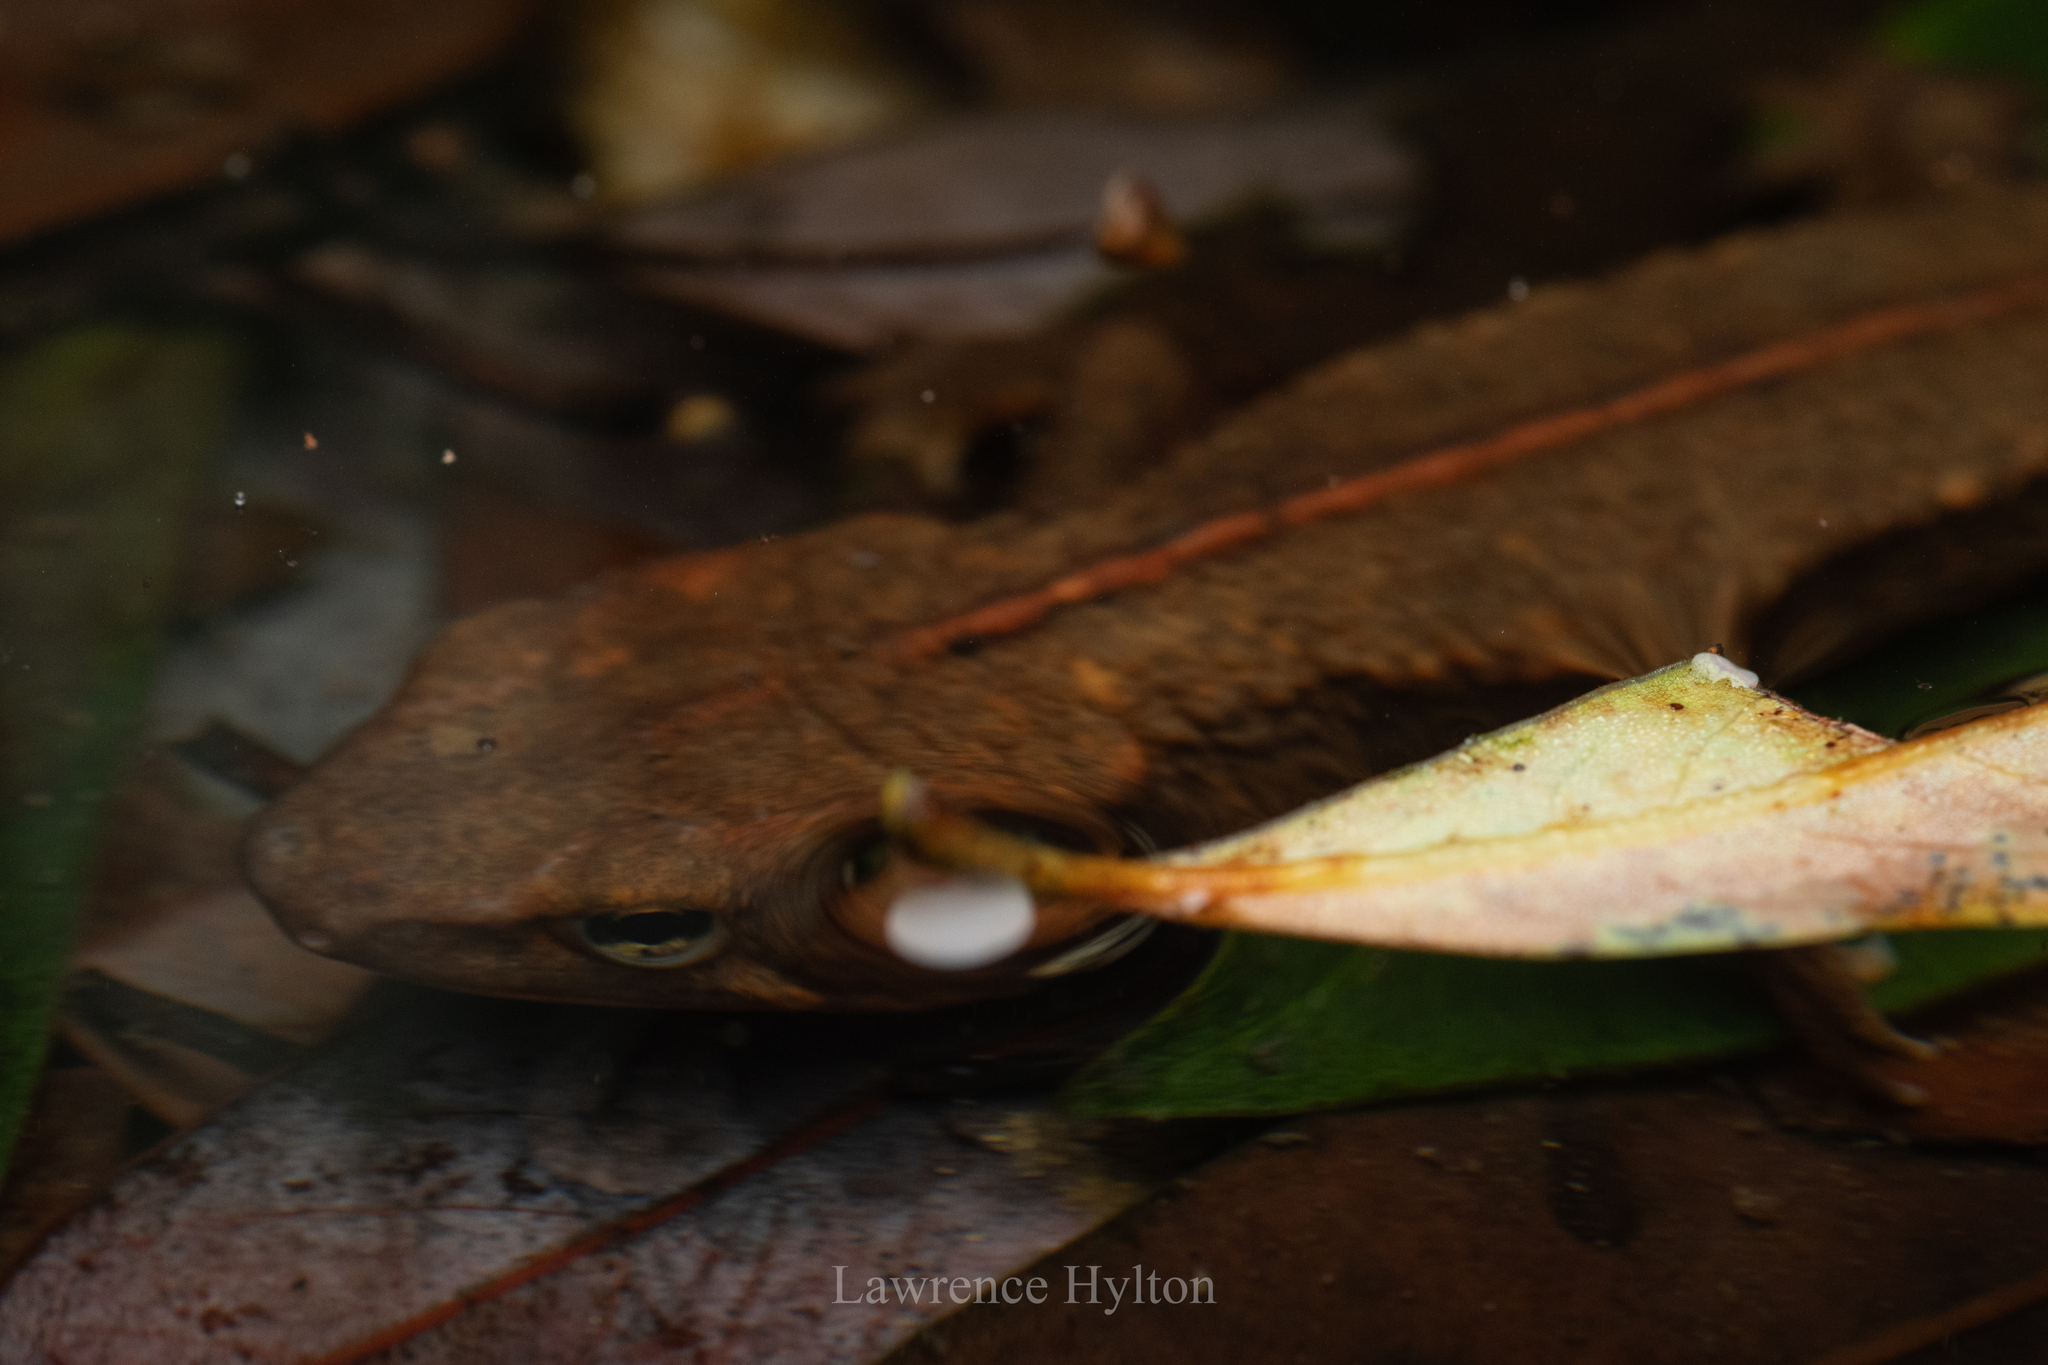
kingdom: Animalia
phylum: Chordata
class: Amphibia
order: Caudata
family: Salamandridae
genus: Paramesotriton
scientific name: Paramesotriton hongkongensis
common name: Hong kong warty newt
